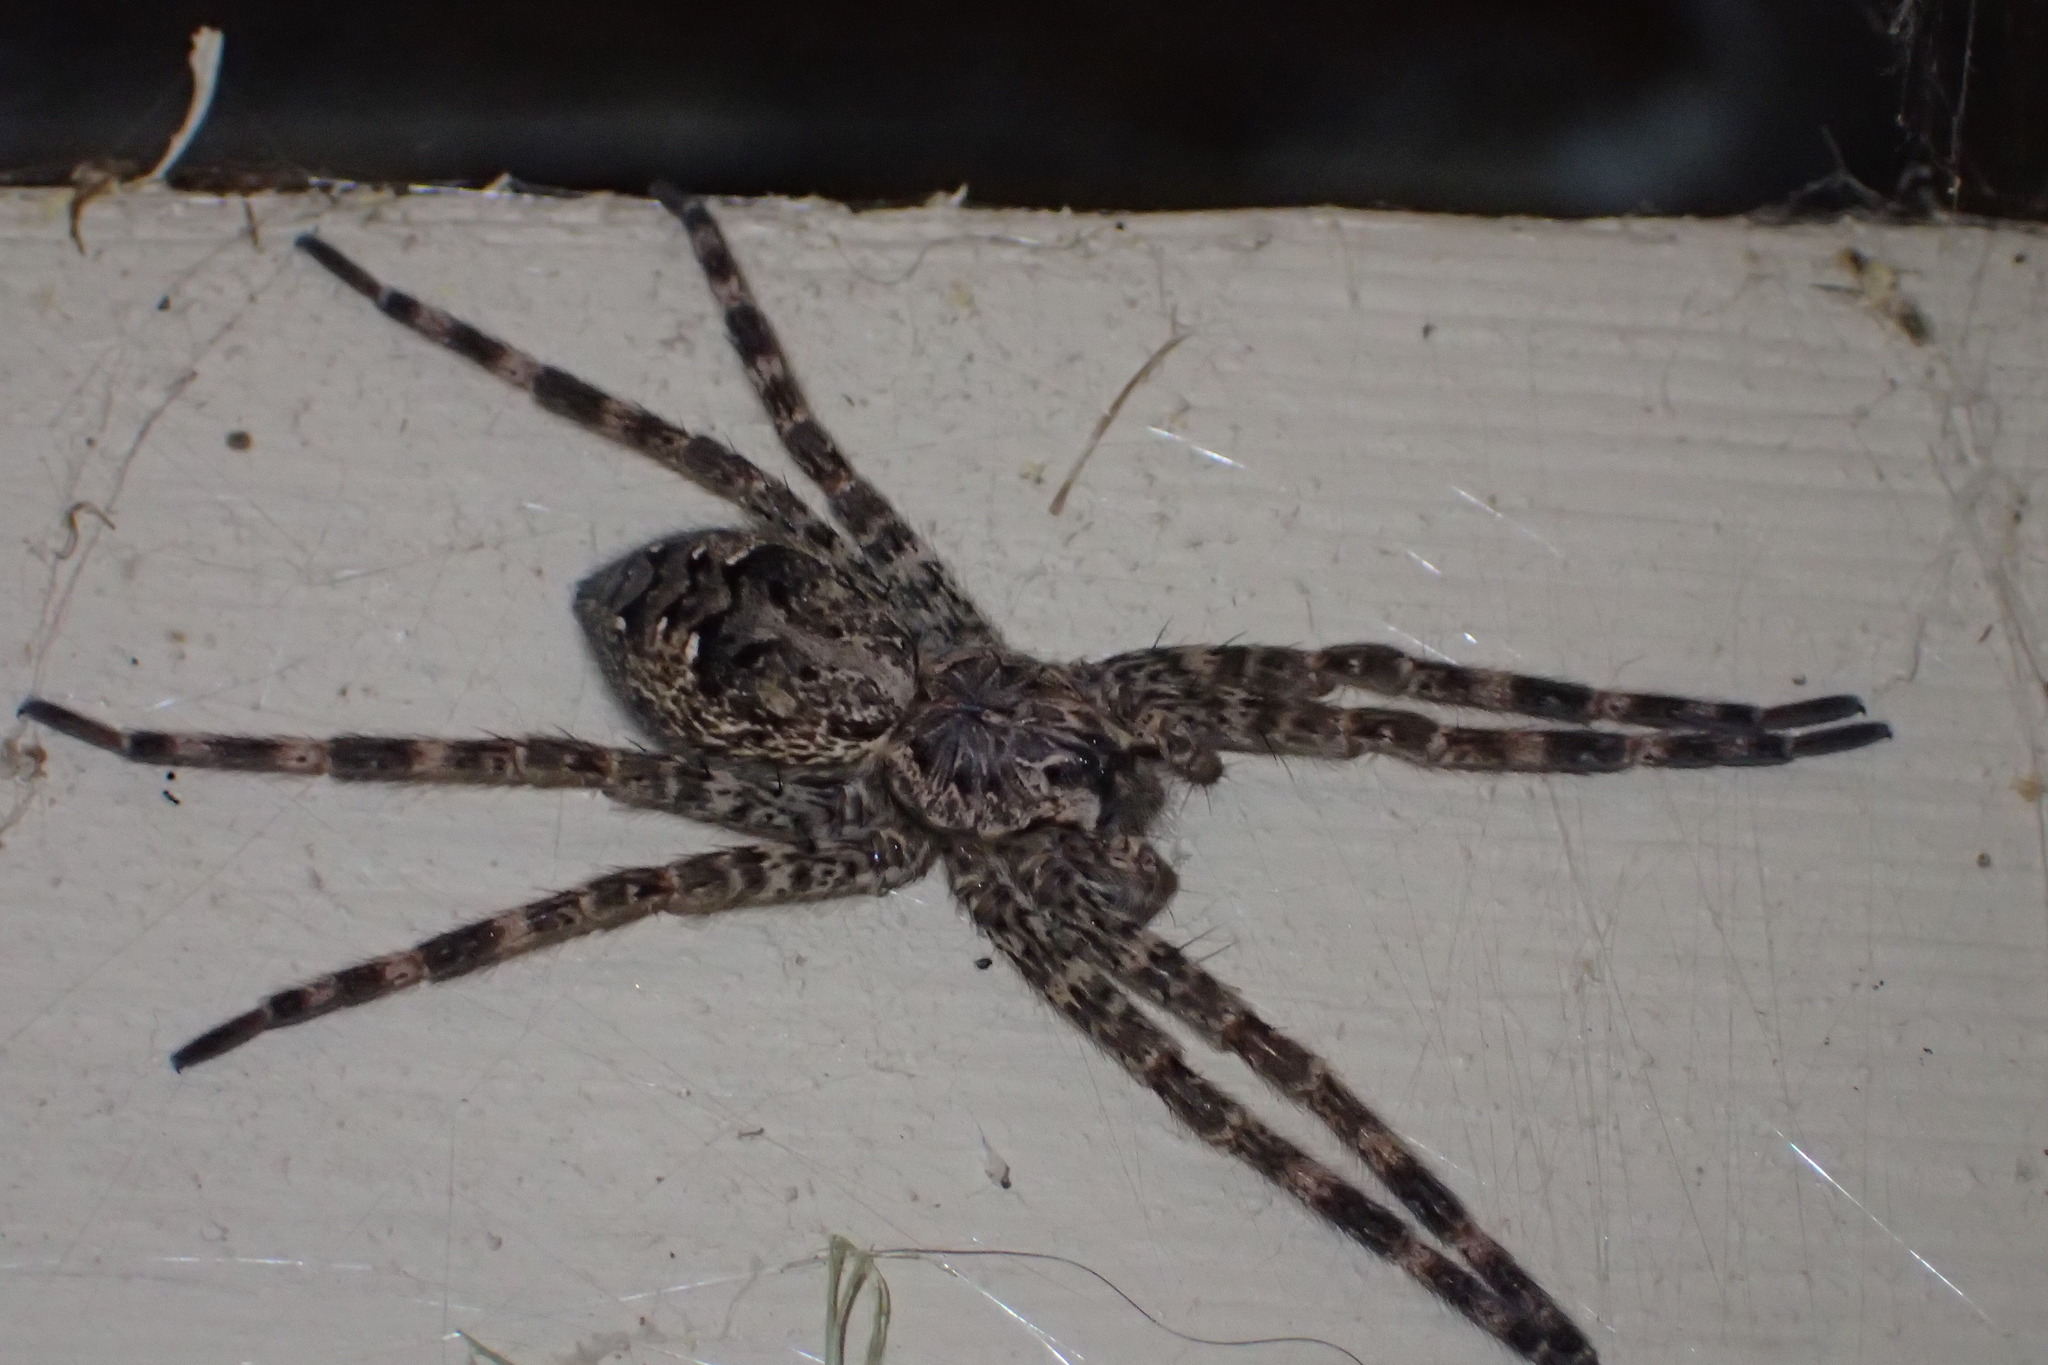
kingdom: Animalia
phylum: Arthropoda
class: Arachnida
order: Araneae
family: Pisauridae
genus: Dolomedes
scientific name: Dolomedes tenebrosus
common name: Dark fishing spider
